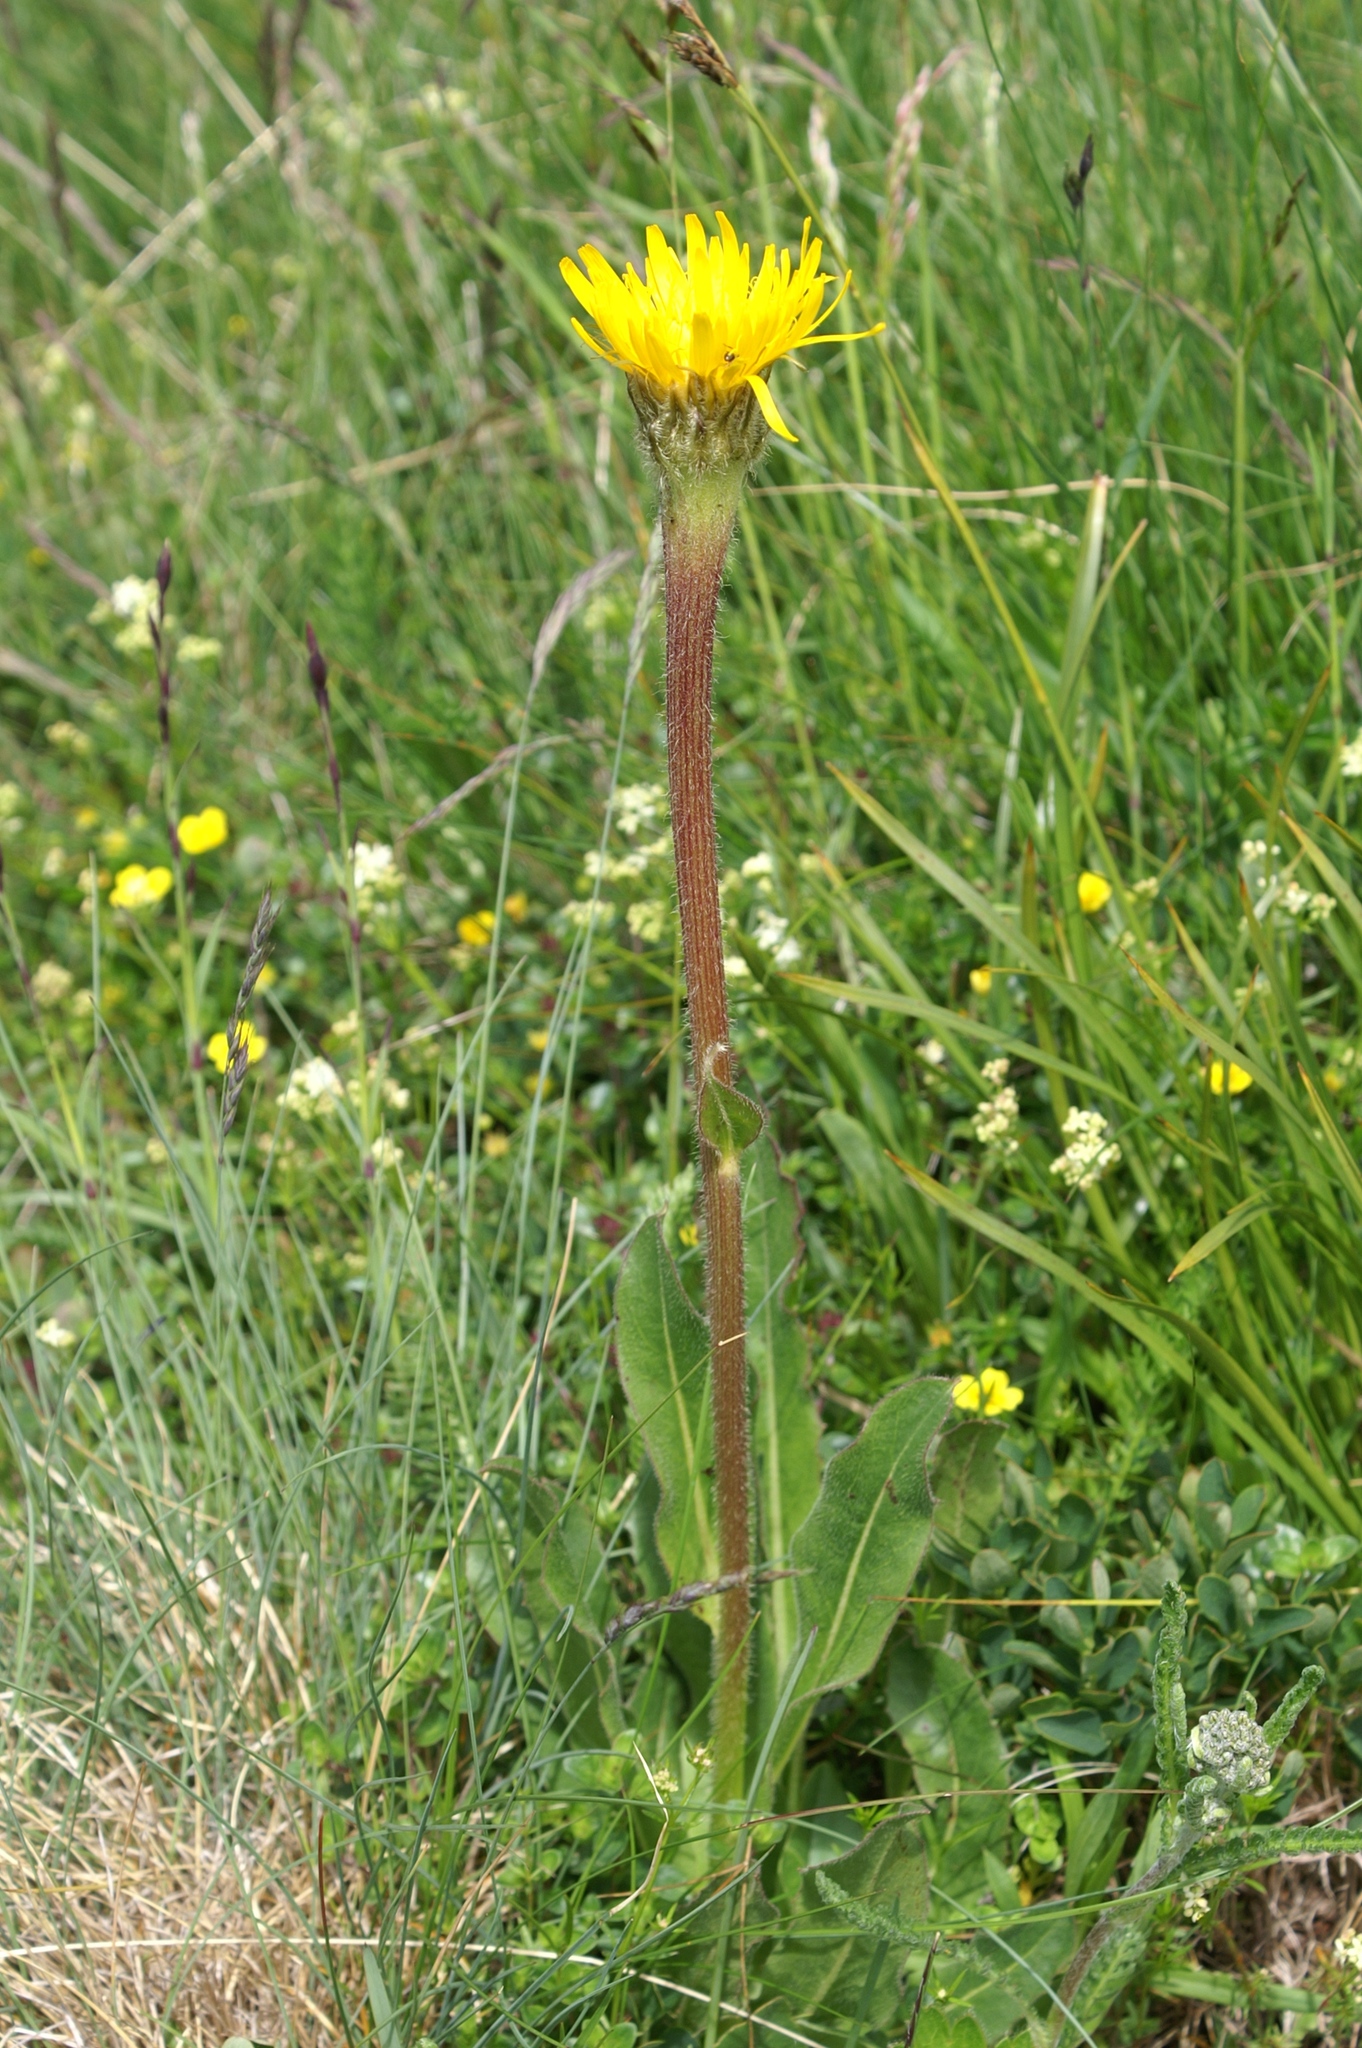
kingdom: Plantae
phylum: Tracheophyta
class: Magnoliopsida
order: Asterales
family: Asteraceae
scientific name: Asteraceae
